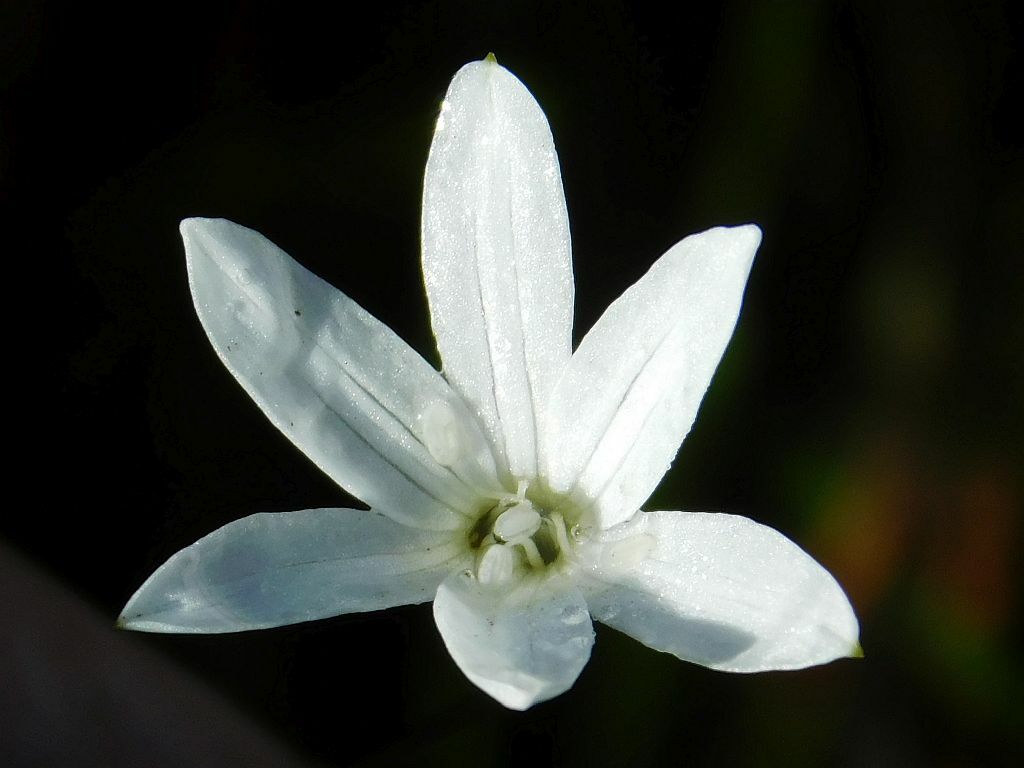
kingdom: Plantae
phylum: Tracheophyta
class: Liliopsida
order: Asparagales
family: Amaryllidaceae
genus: Strumaria
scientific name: Strumaria spiralis
